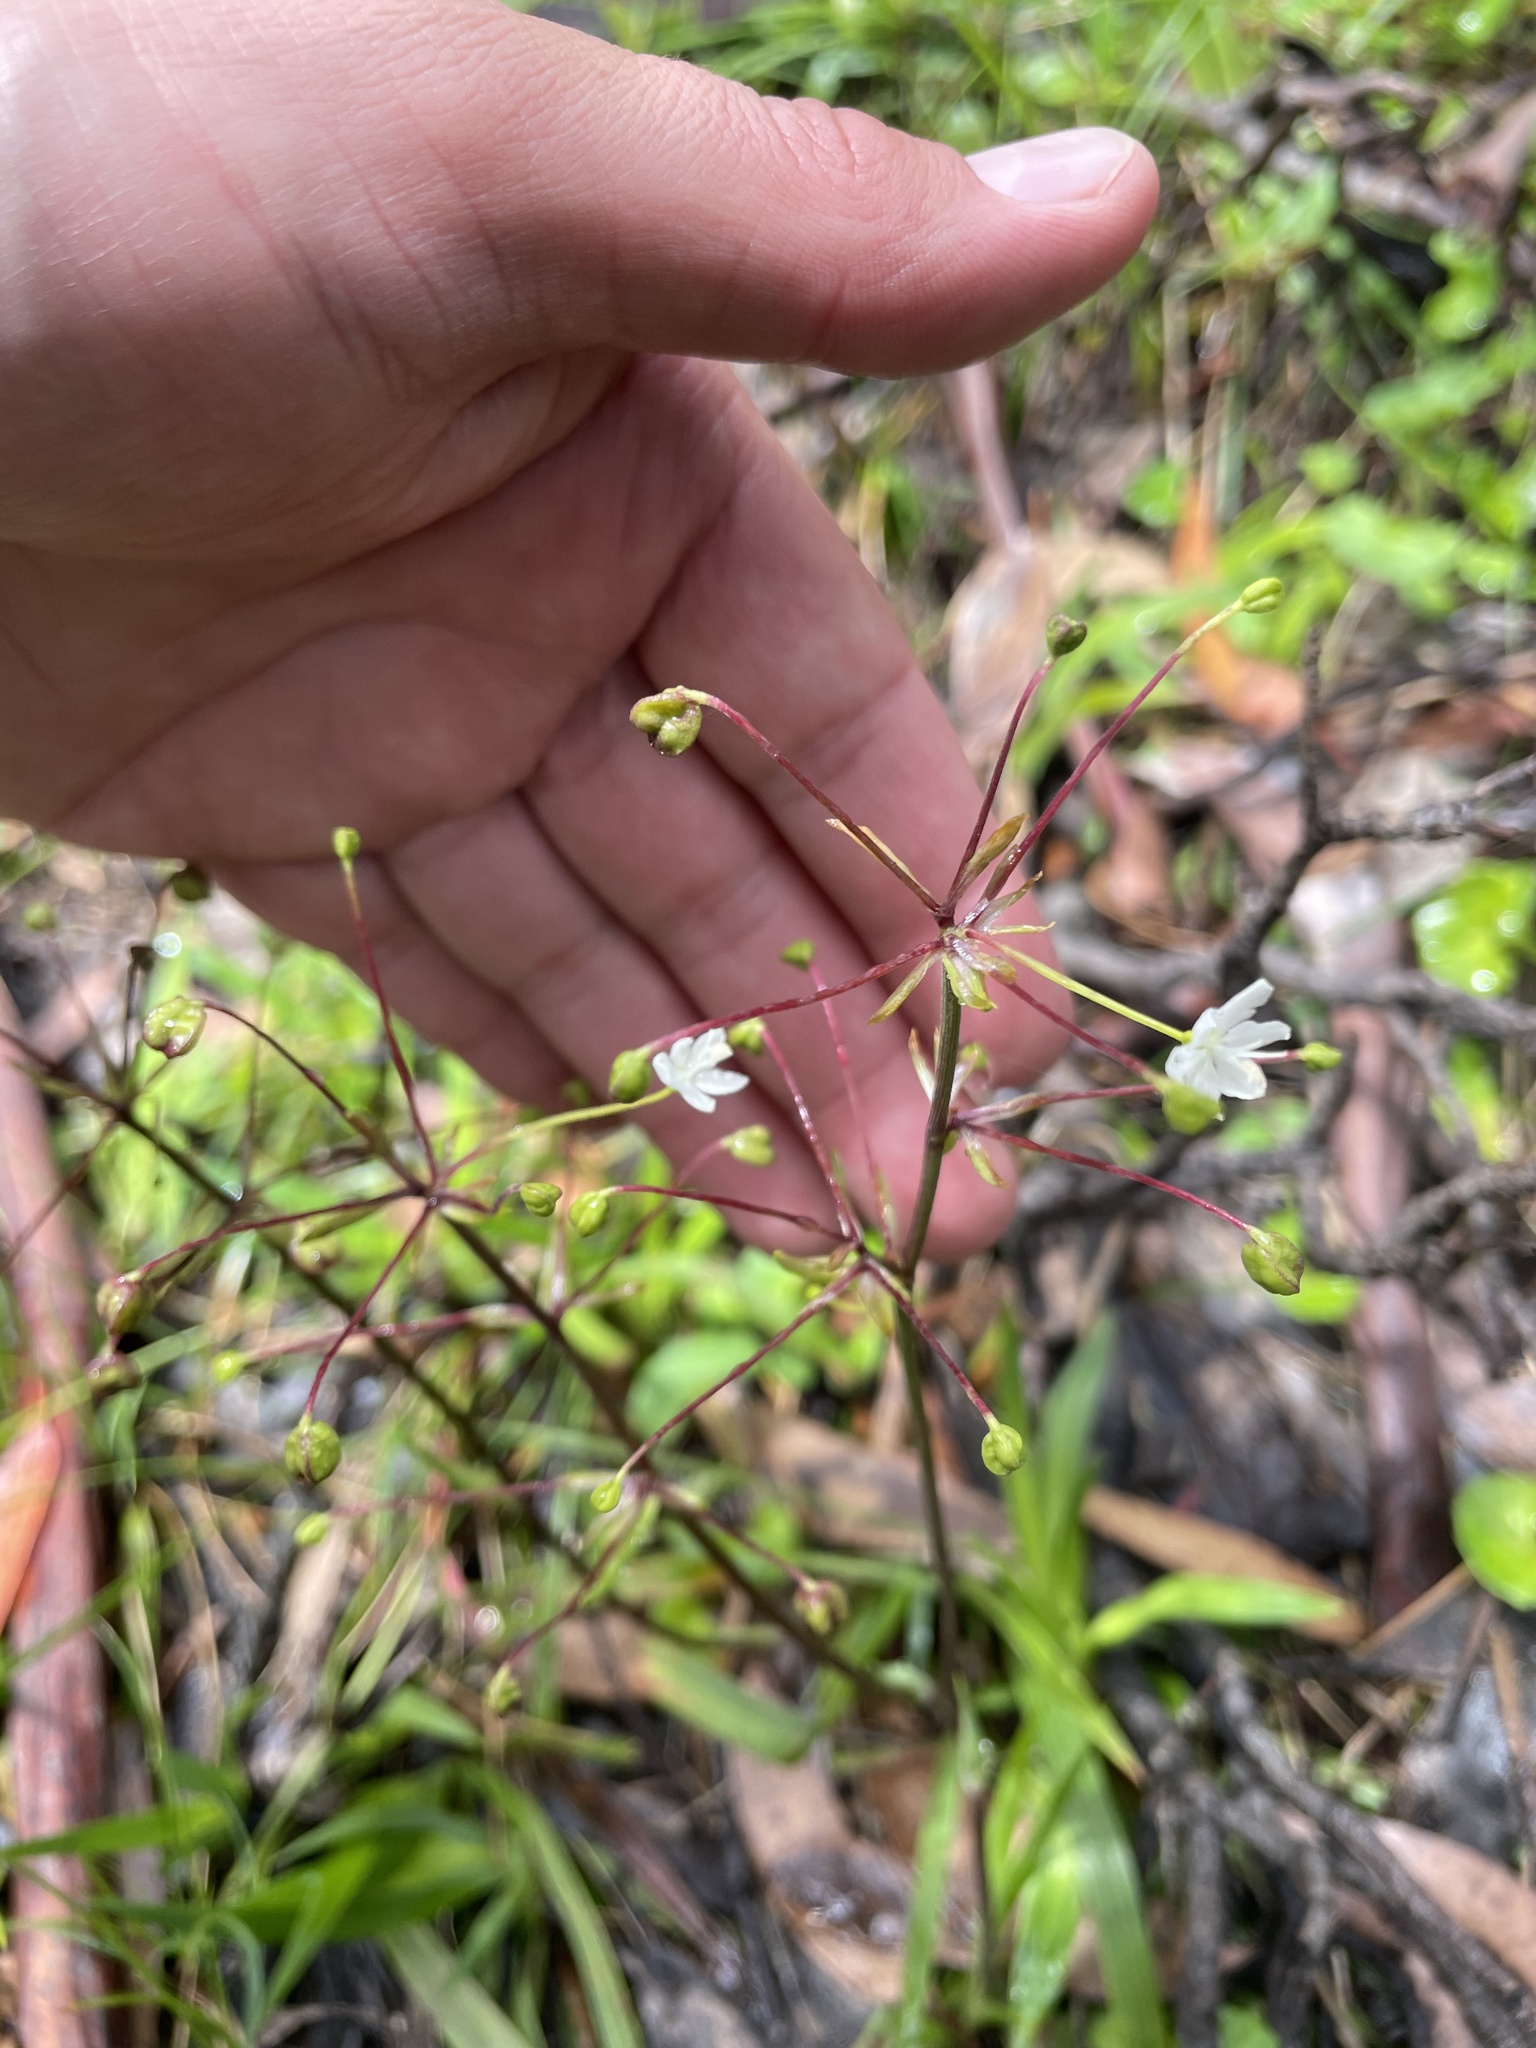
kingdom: Plantae
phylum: Tracheophyta
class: Liliopsida
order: Asparagales
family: Iridaceae
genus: Libertia
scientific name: Libertia pulchella
